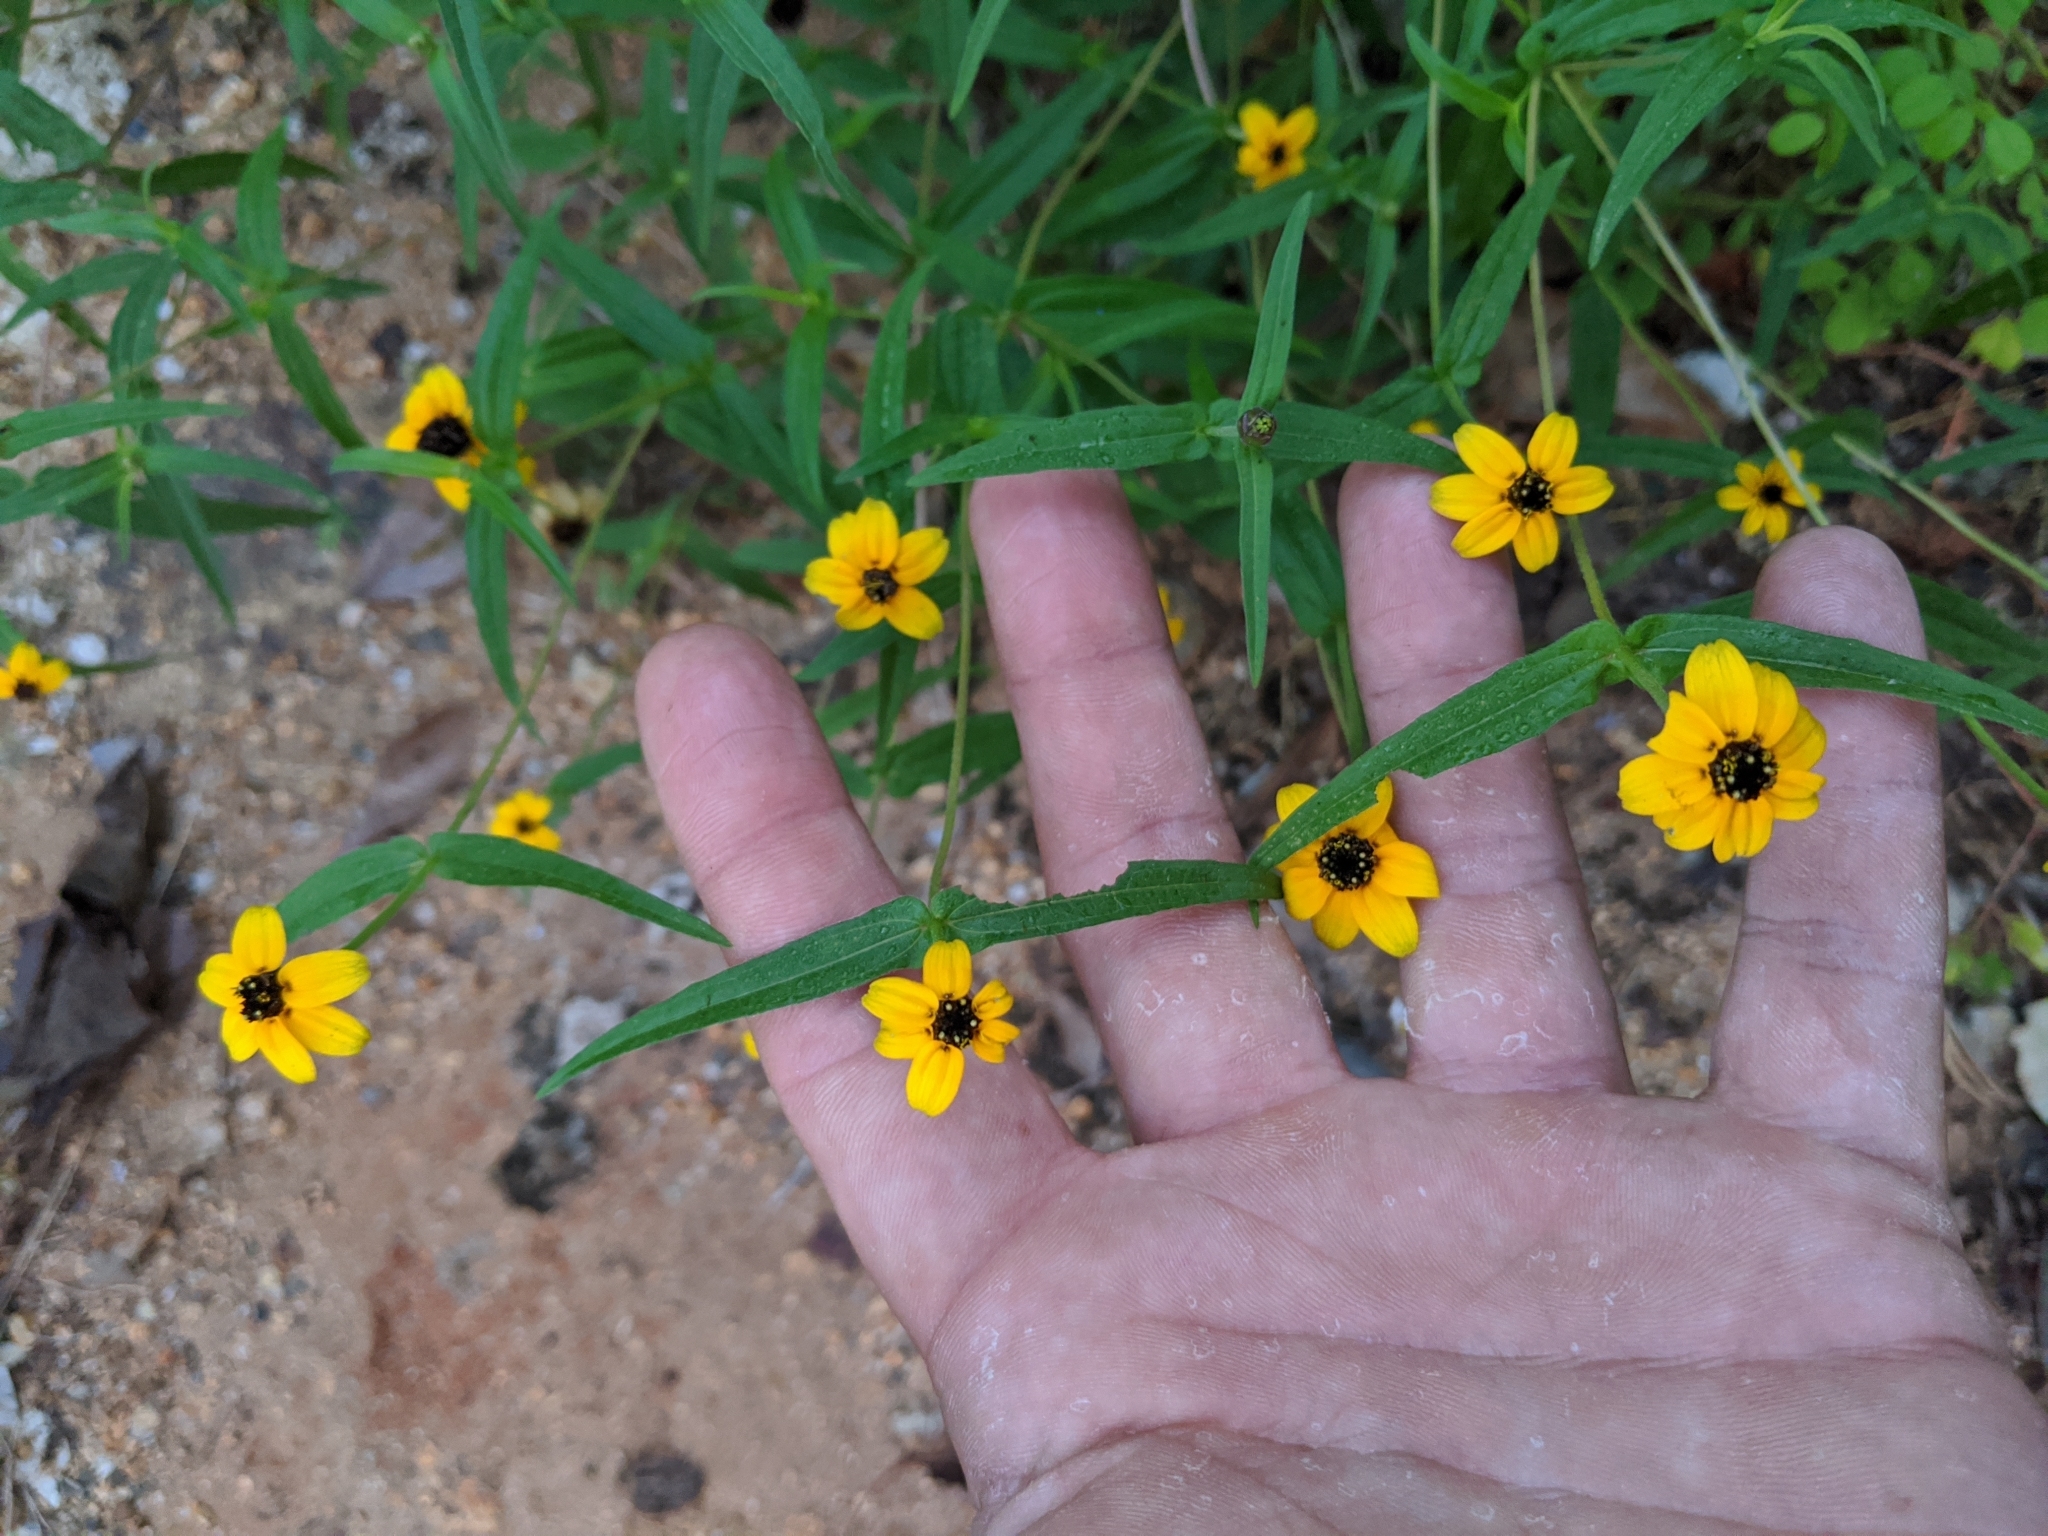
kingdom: Plantae
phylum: Tracheophyta
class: Magnoliopsida
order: Asterales
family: Asteraceae
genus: Zinnia
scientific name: Zinnia maritima
